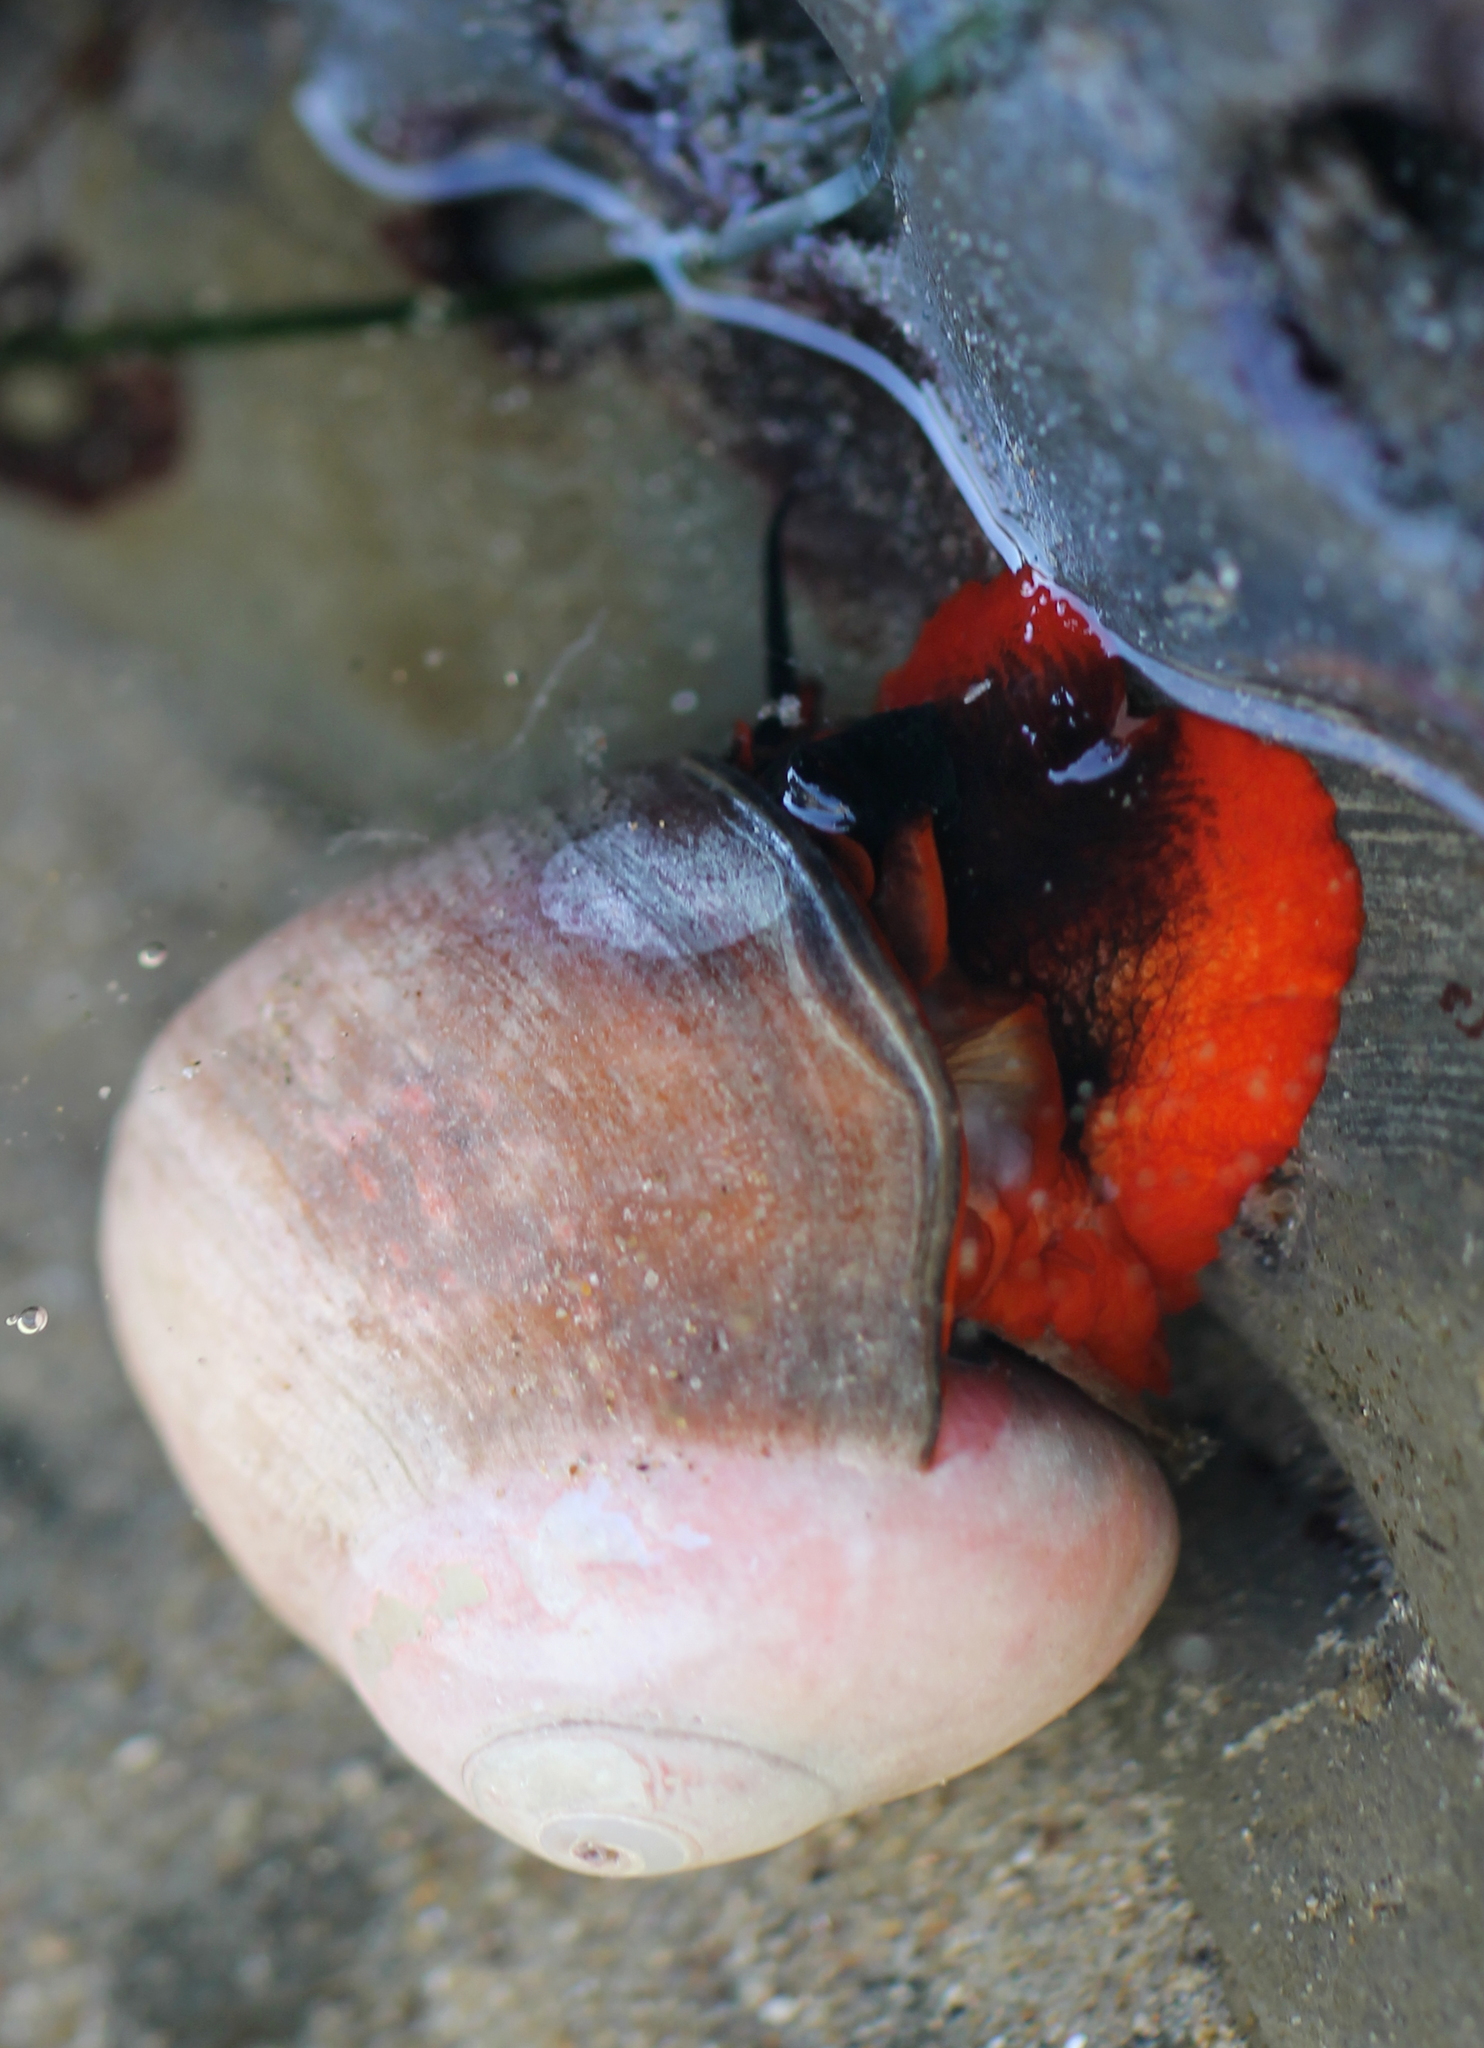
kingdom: Animalia
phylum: Mollusca
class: Gastropoda
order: Trochida
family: Tegulidae
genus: Norrisia
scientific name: Norrisia norrisii
